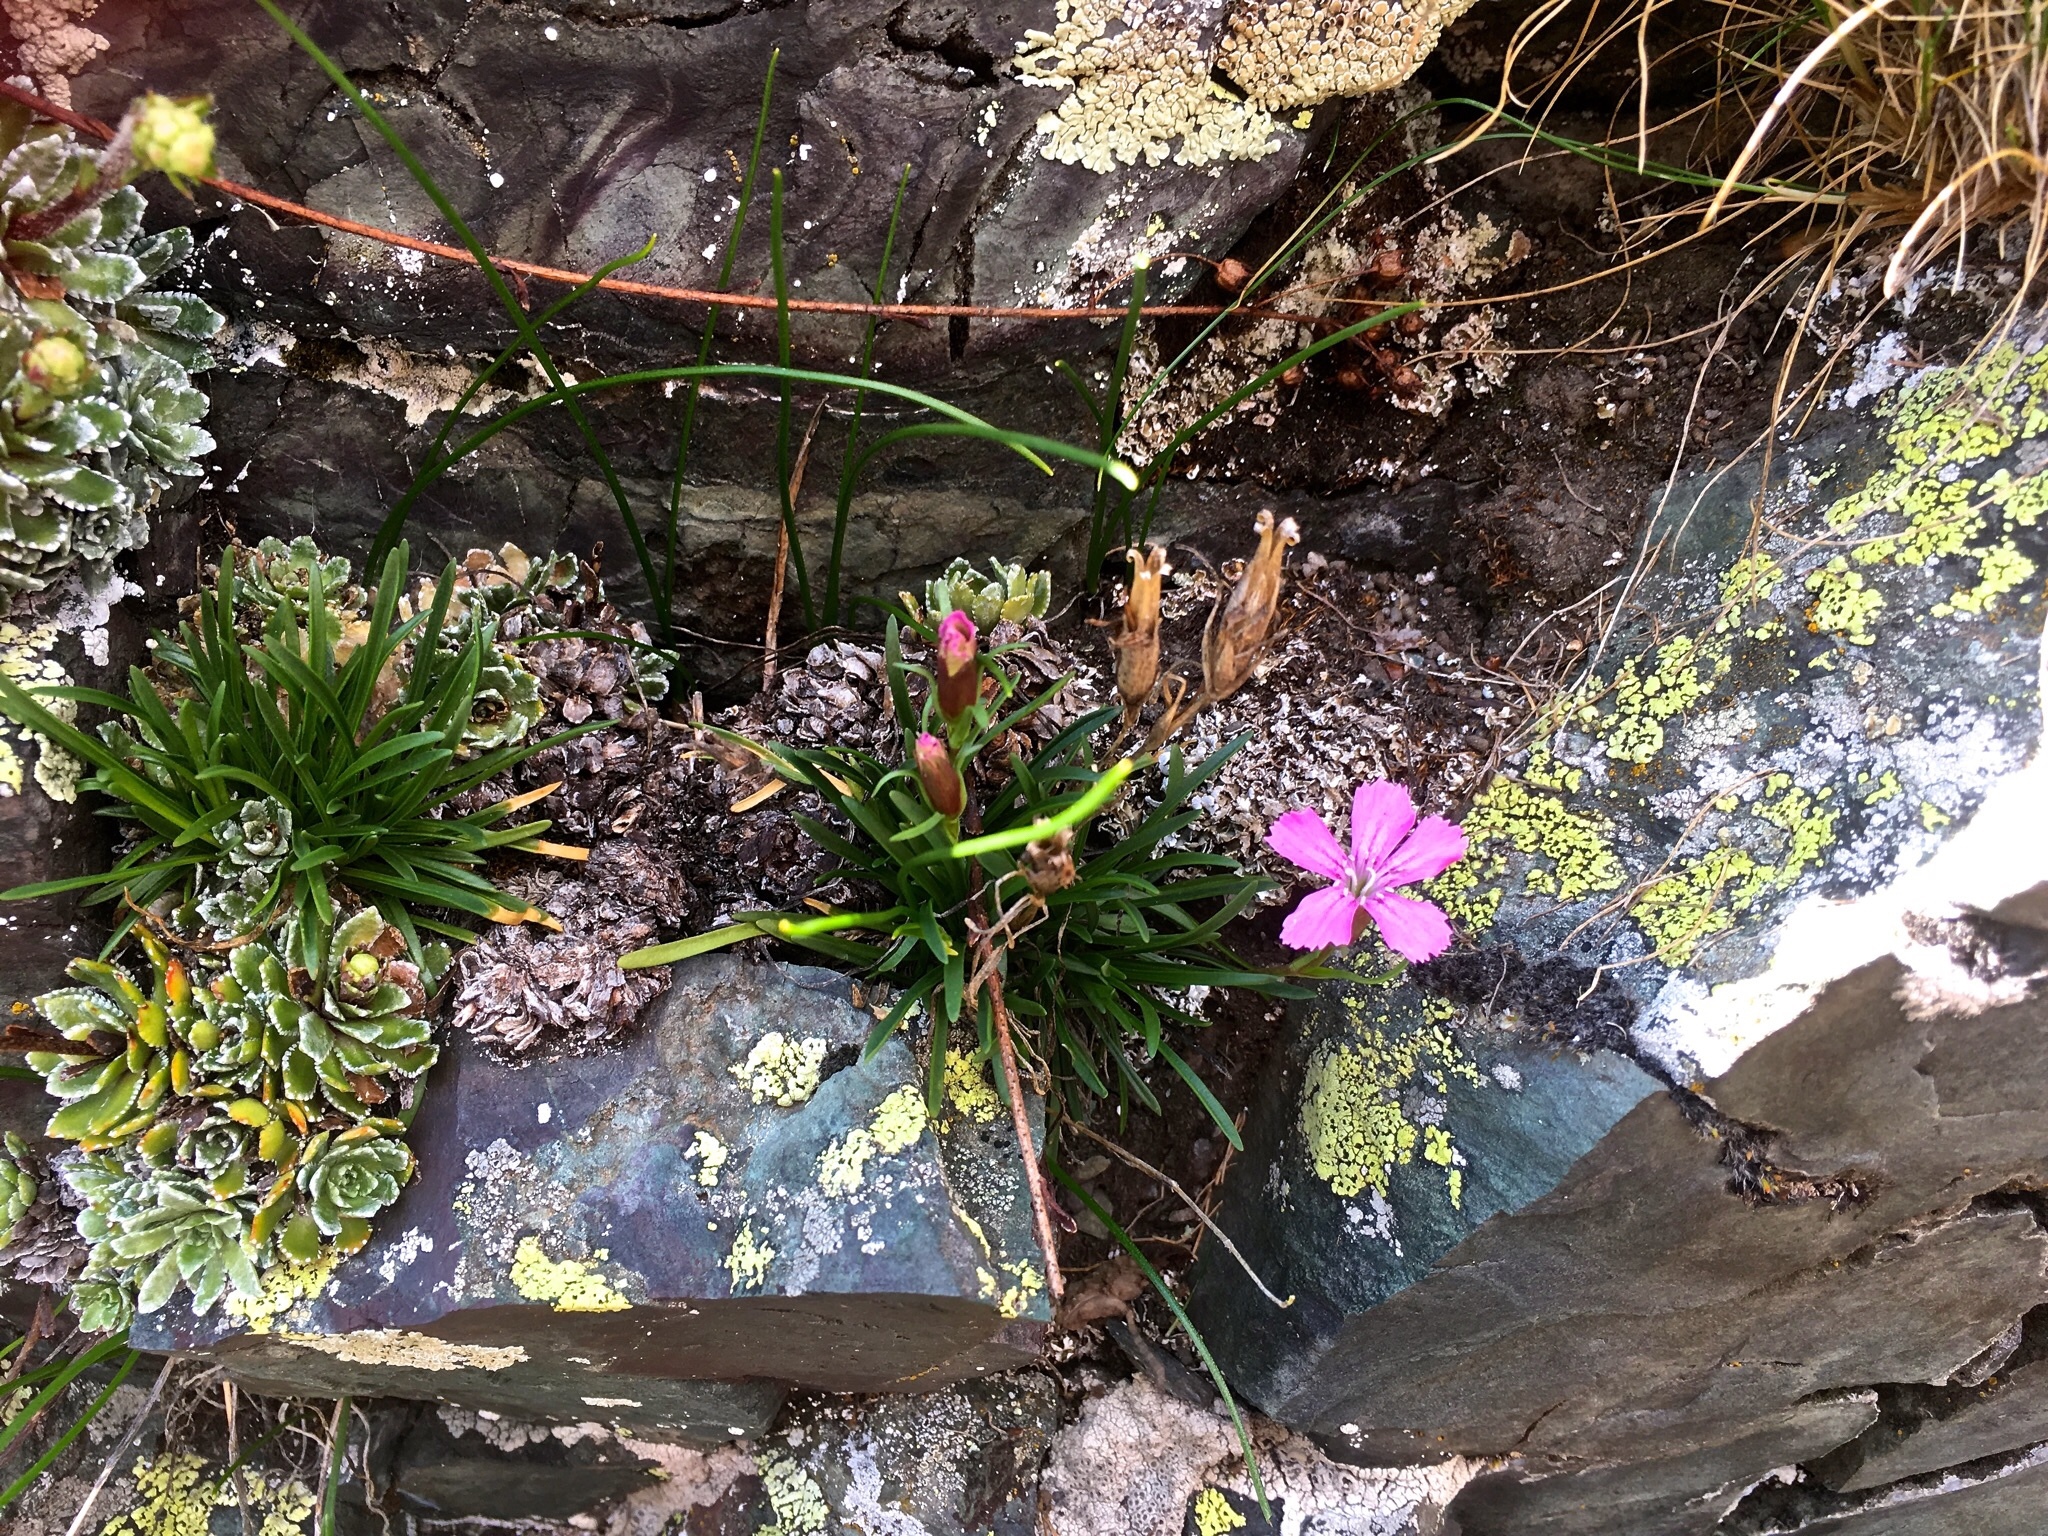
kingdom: Plantae
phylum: Tracheophyta
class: Magnoliopsida
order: Caryophyllales
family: Caryophyllaceae
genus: Dianthus
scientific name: Dianthus glacialis
